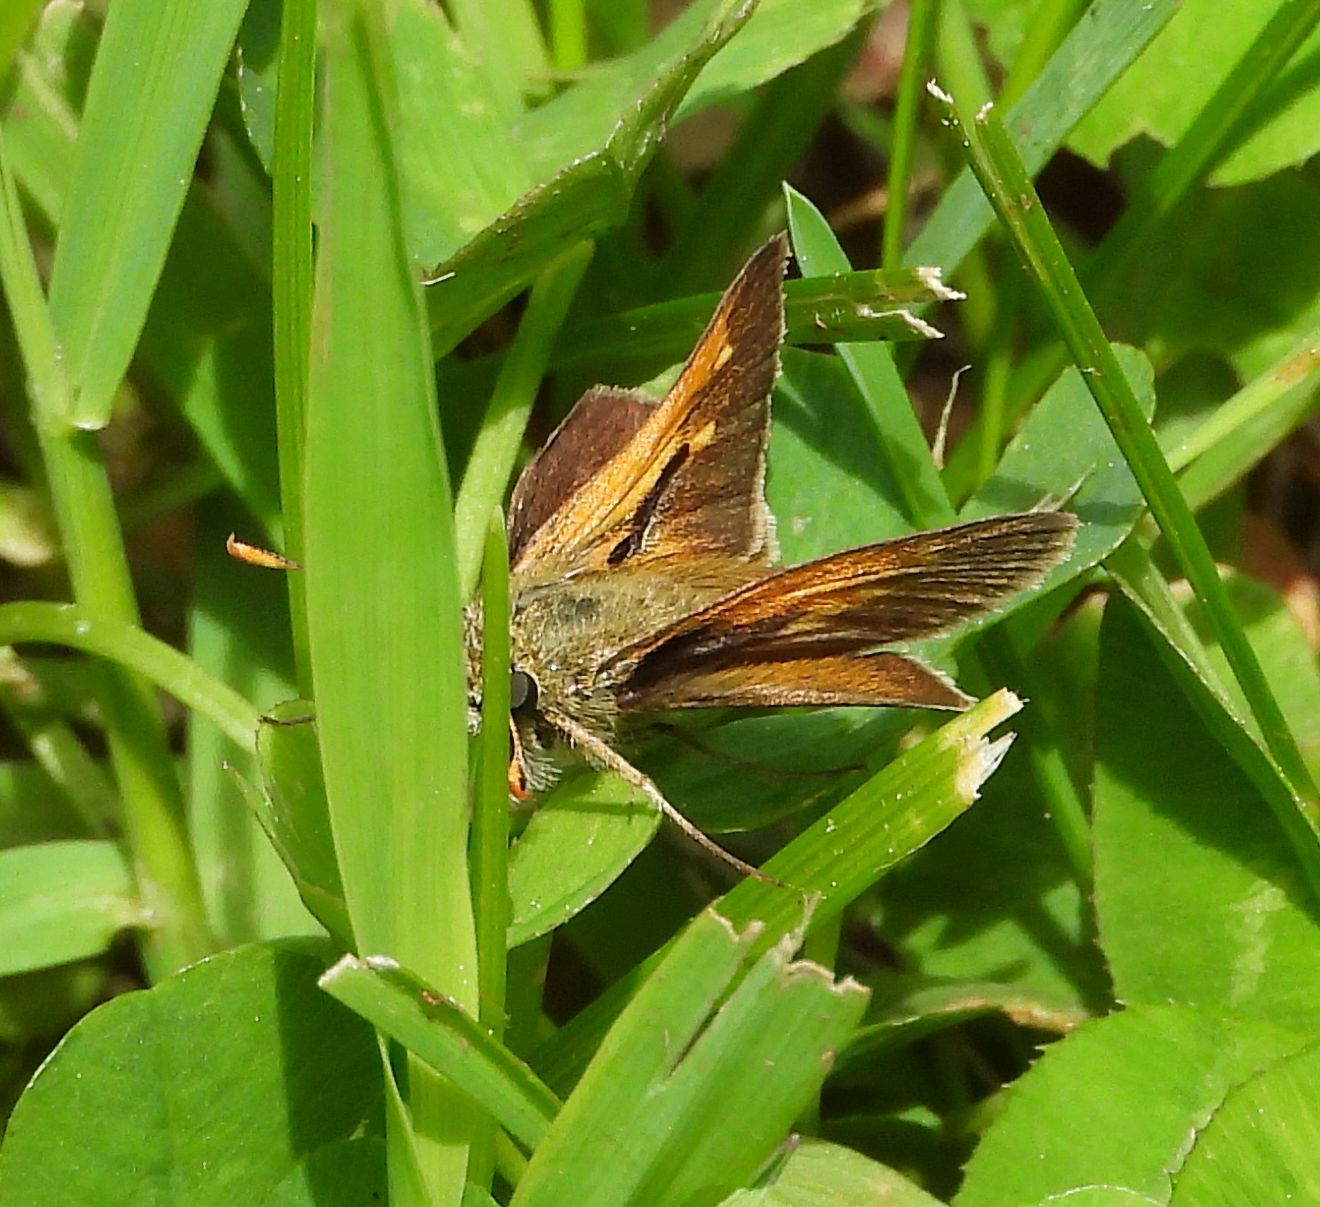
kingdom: Animalia
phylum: Arthropoda
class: Insecta
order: Lepidoptera
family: Hesperiidae
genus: Polites
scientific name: Polites themistocles
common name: Tawny-edged skipper
